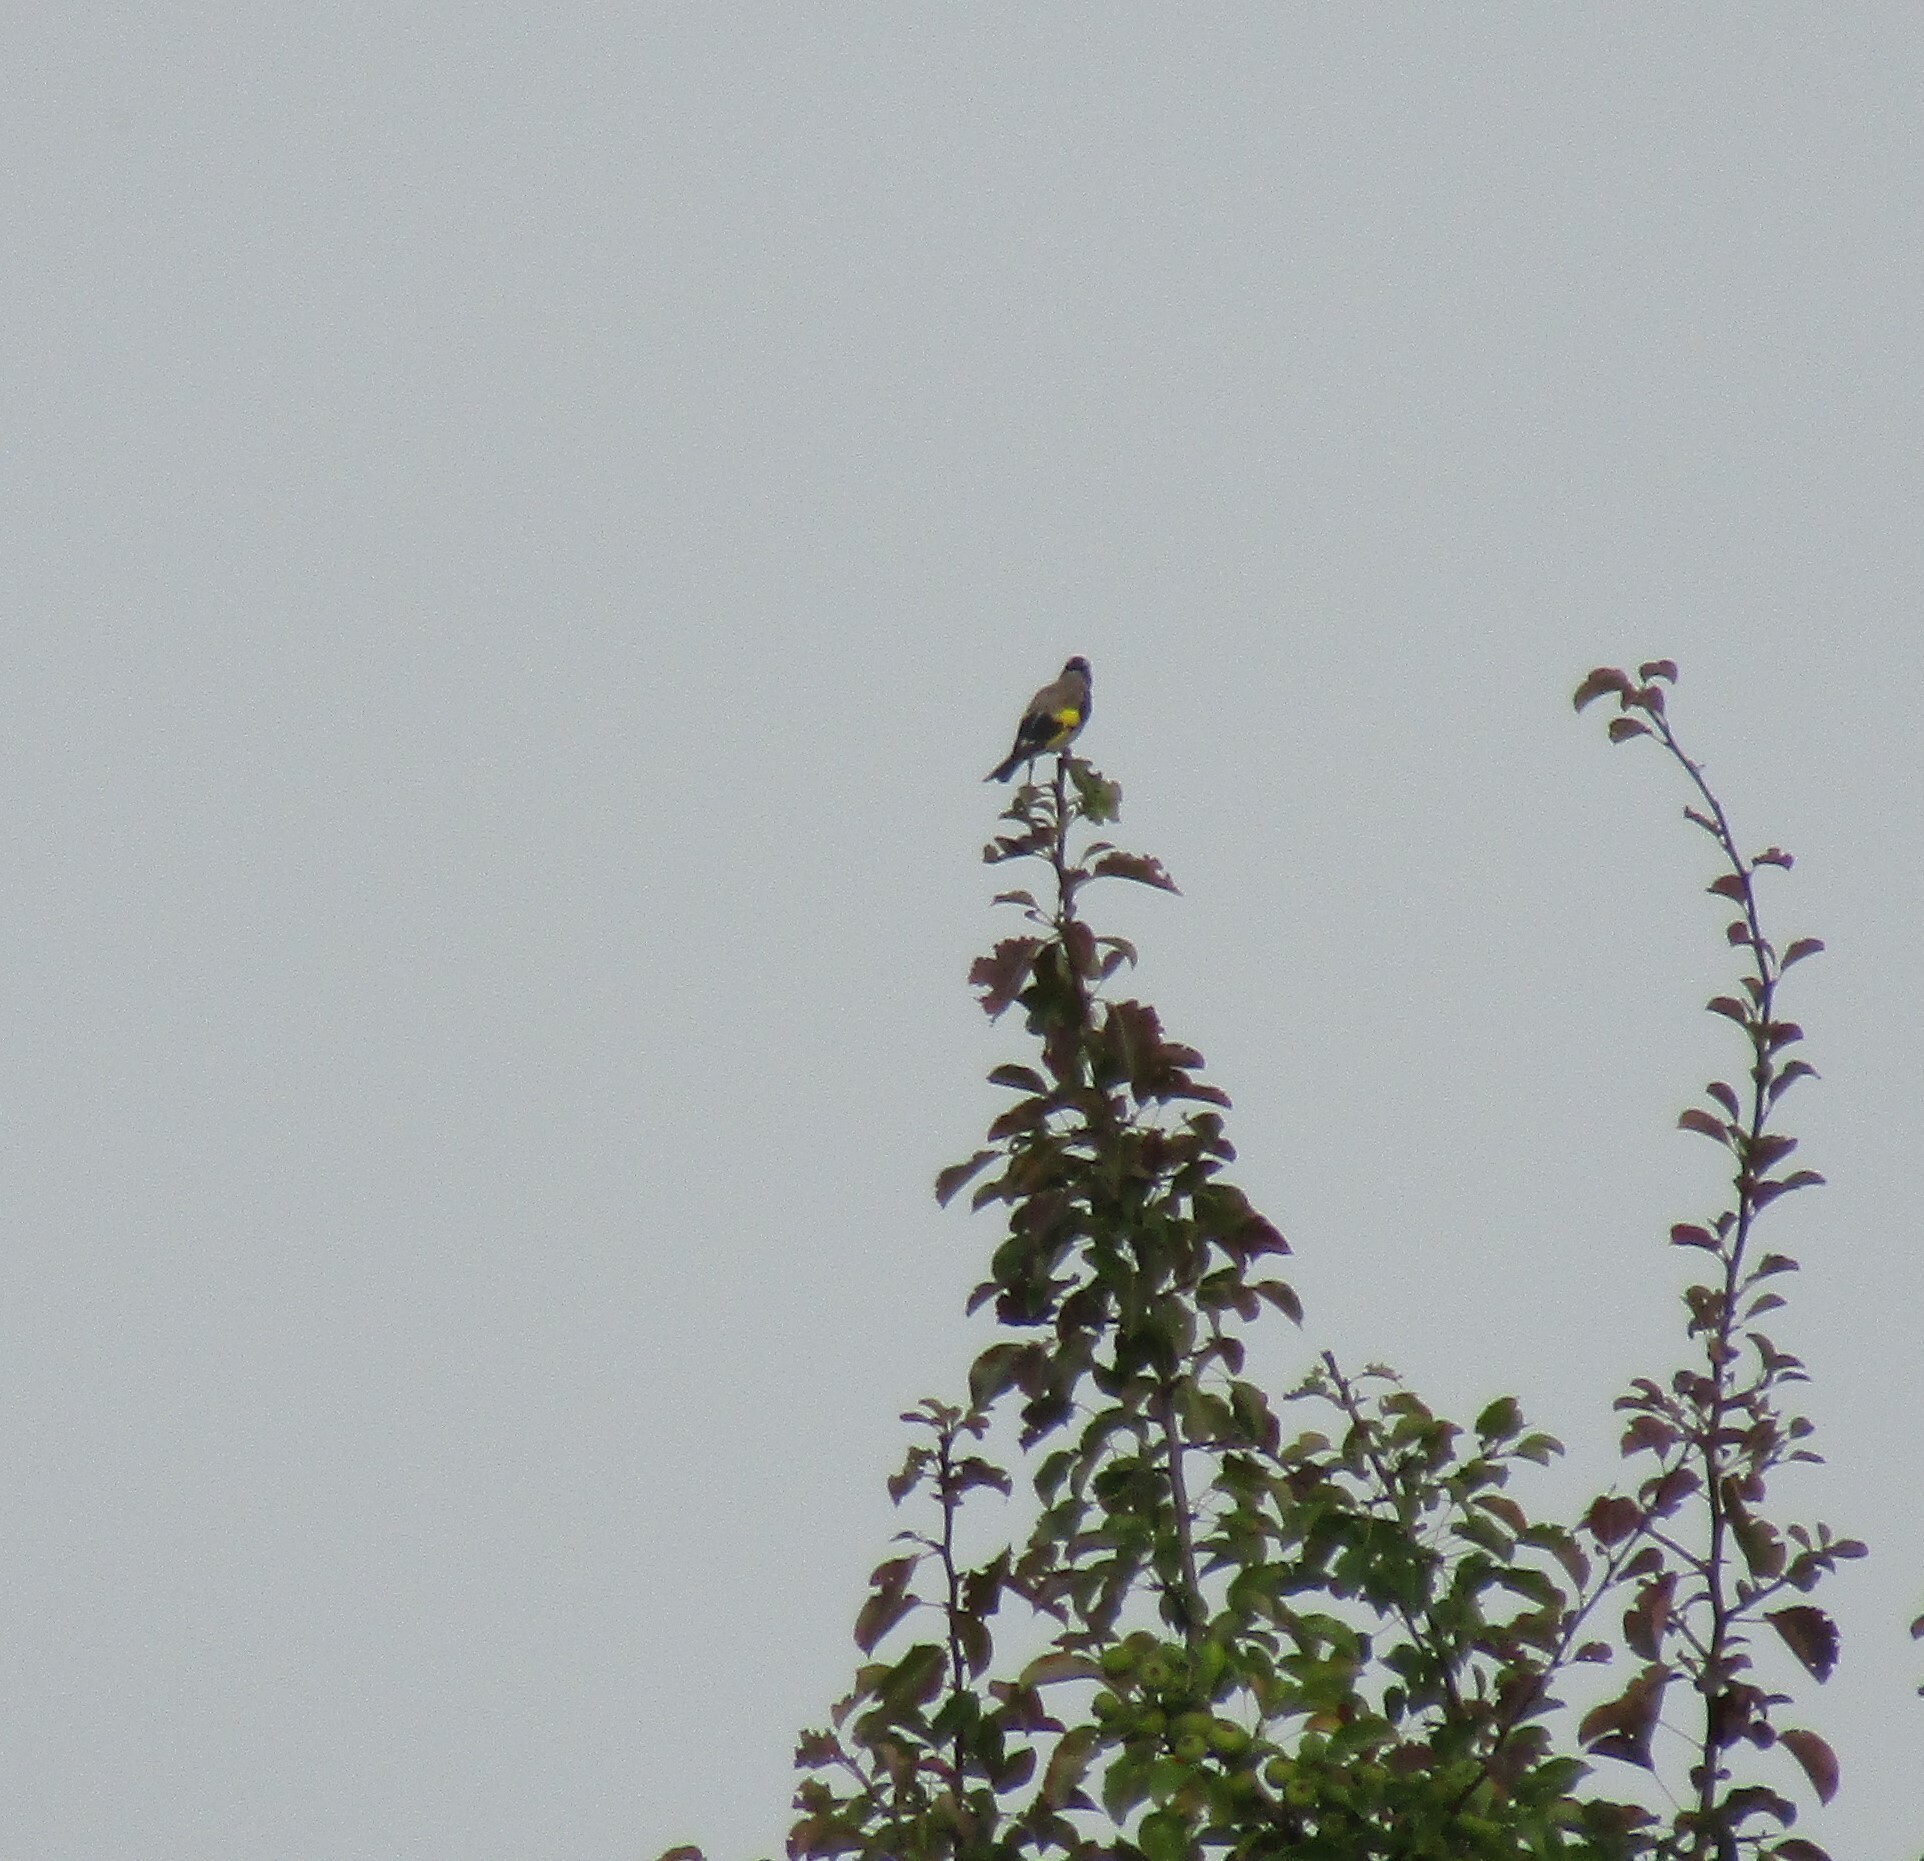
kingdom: Animalia
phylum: Chordata
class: Aves
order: Passeriformes
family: Fringillidae
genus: Carduelis
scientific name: Carduelis carduelis
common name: European goldfinch
